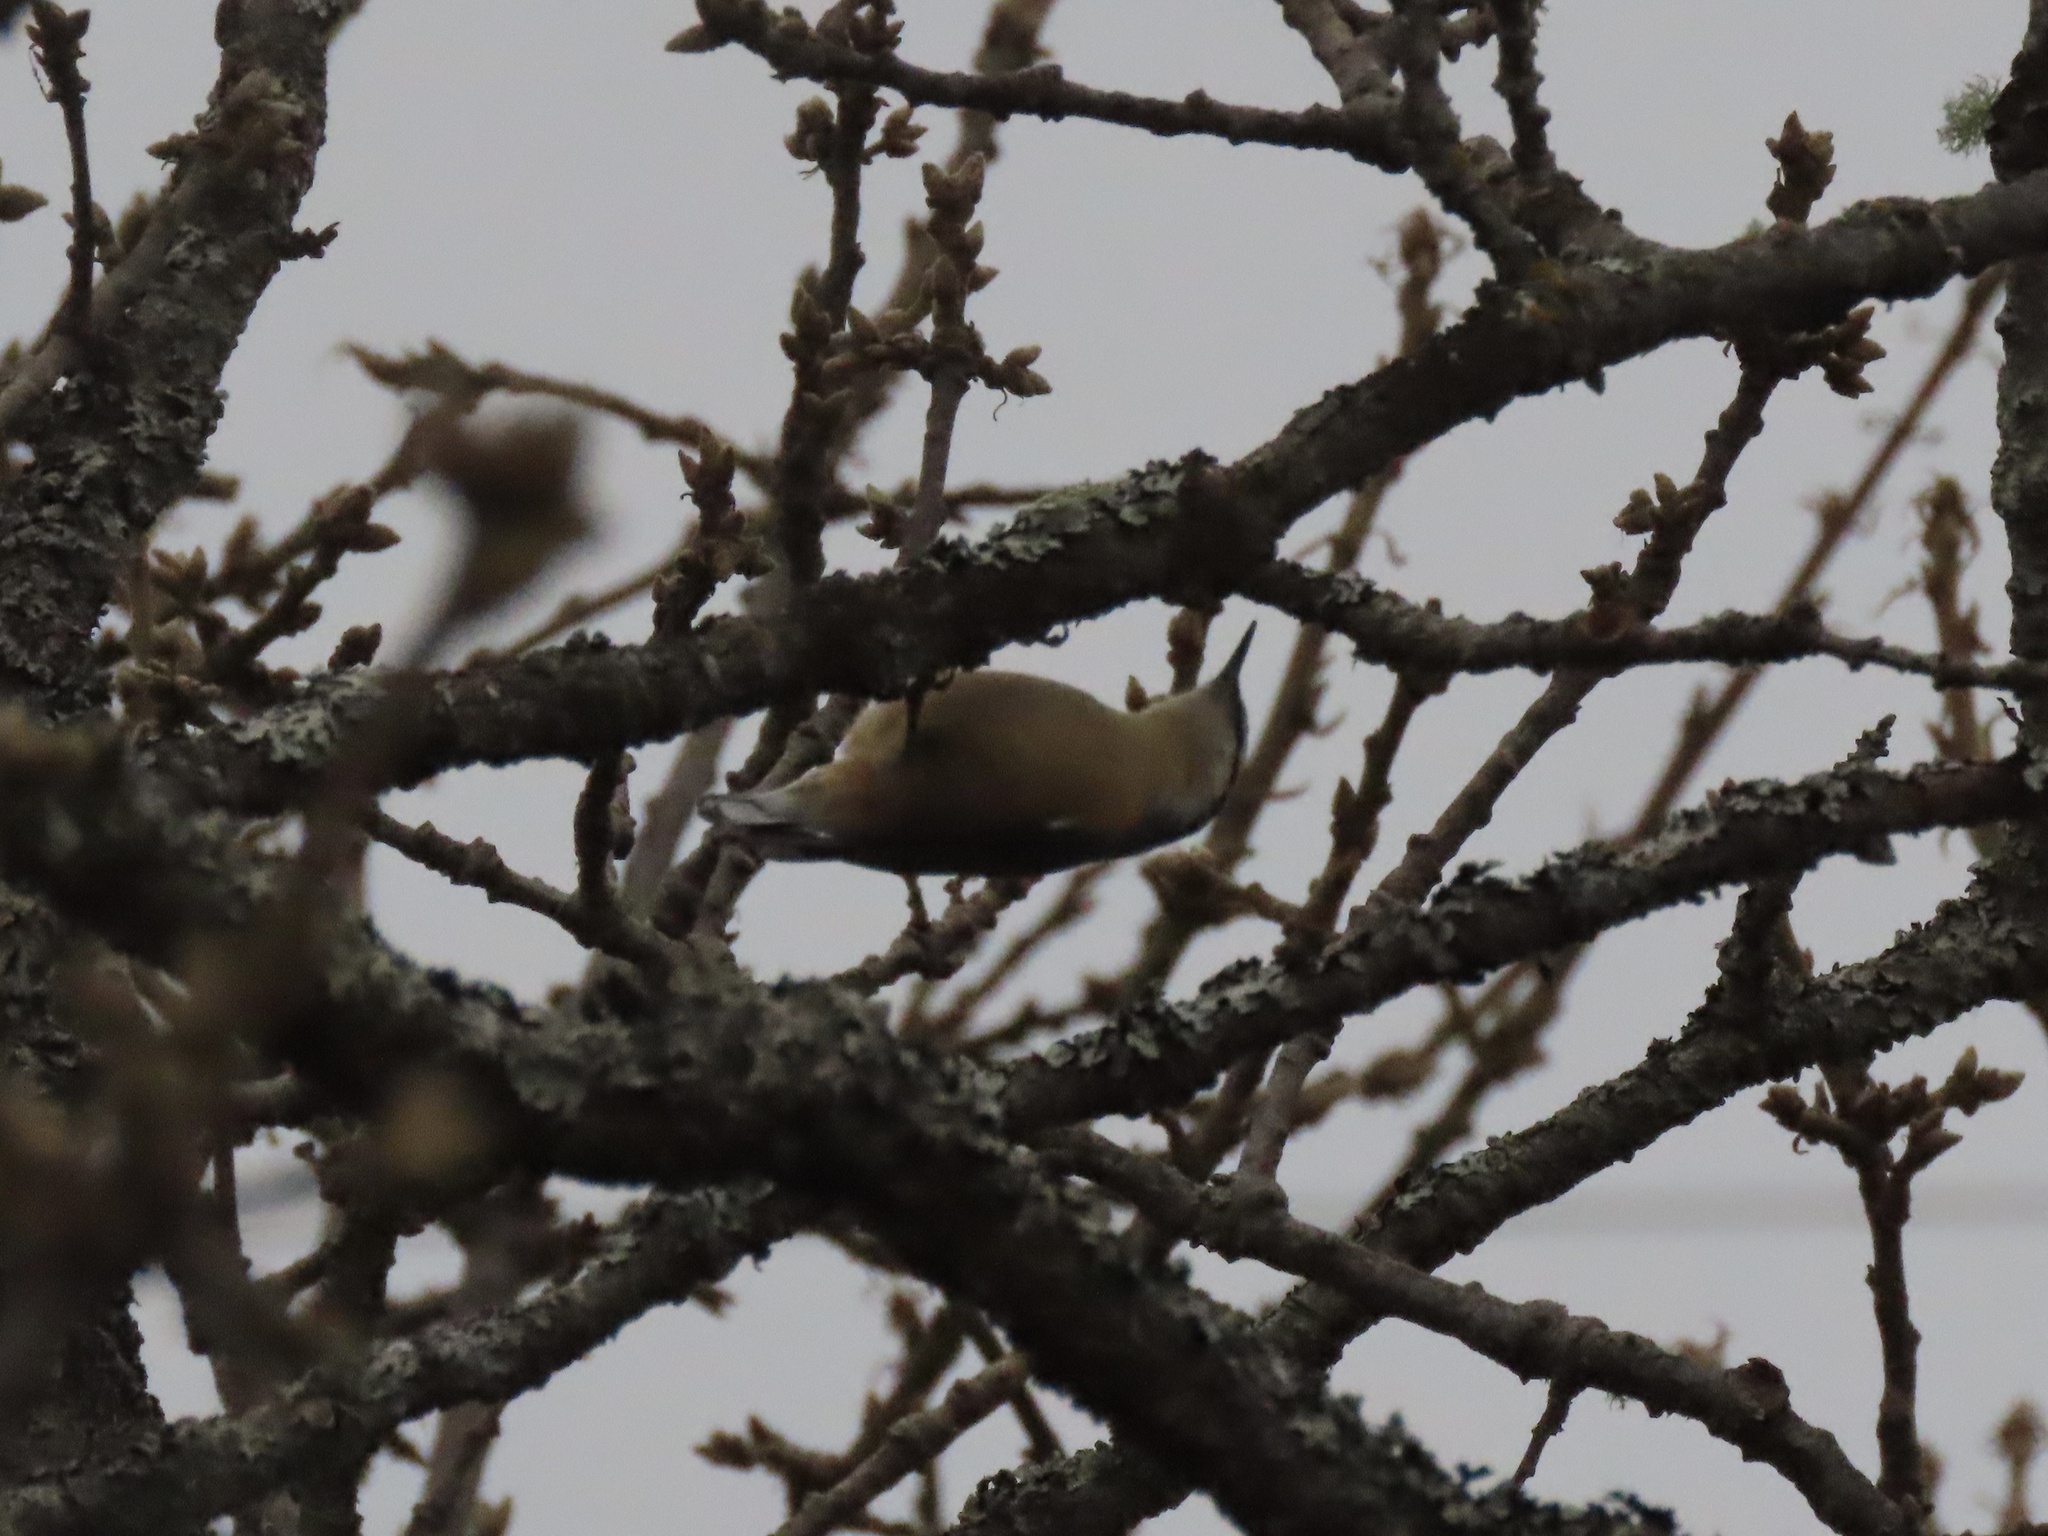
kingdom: Animalia
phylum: Chordata
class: Aves
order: Passeriformes
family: Sittidae
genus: Sitta
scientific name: Sitta canadensis
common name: Red-breasted nuthatch
